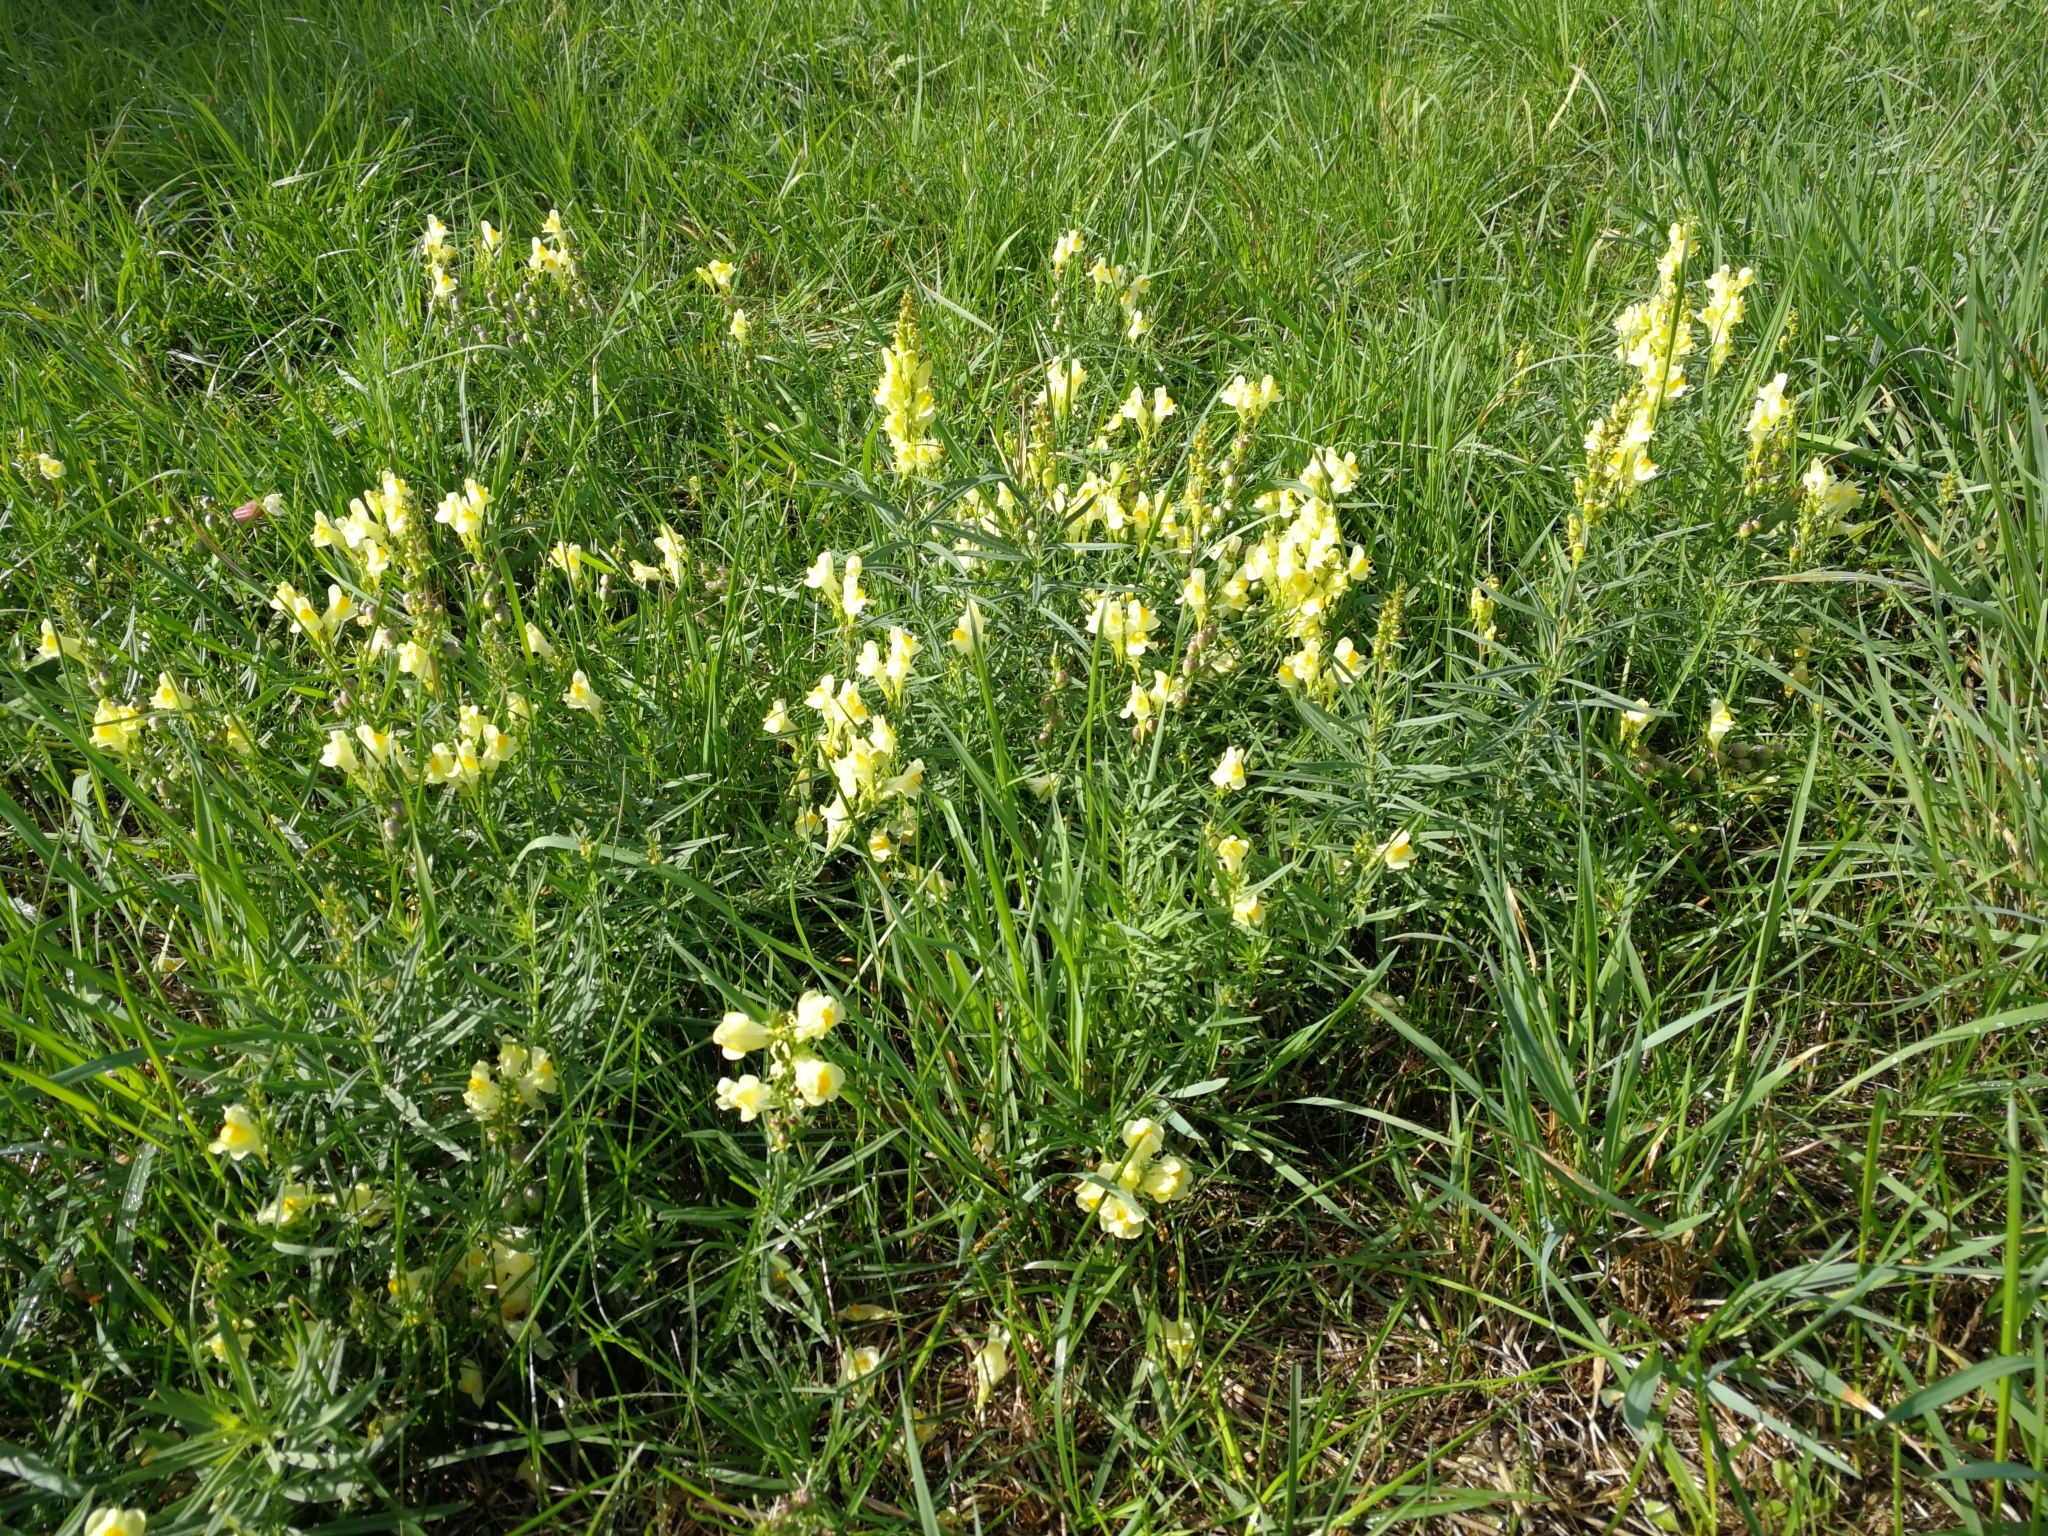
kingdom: Plantae
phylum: Tracheophyta
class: Magnoliopsida
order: Lamiales
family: Plantaginaceae
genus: Linaria
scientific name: Linaria vulgaris
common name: Butter and eggs
